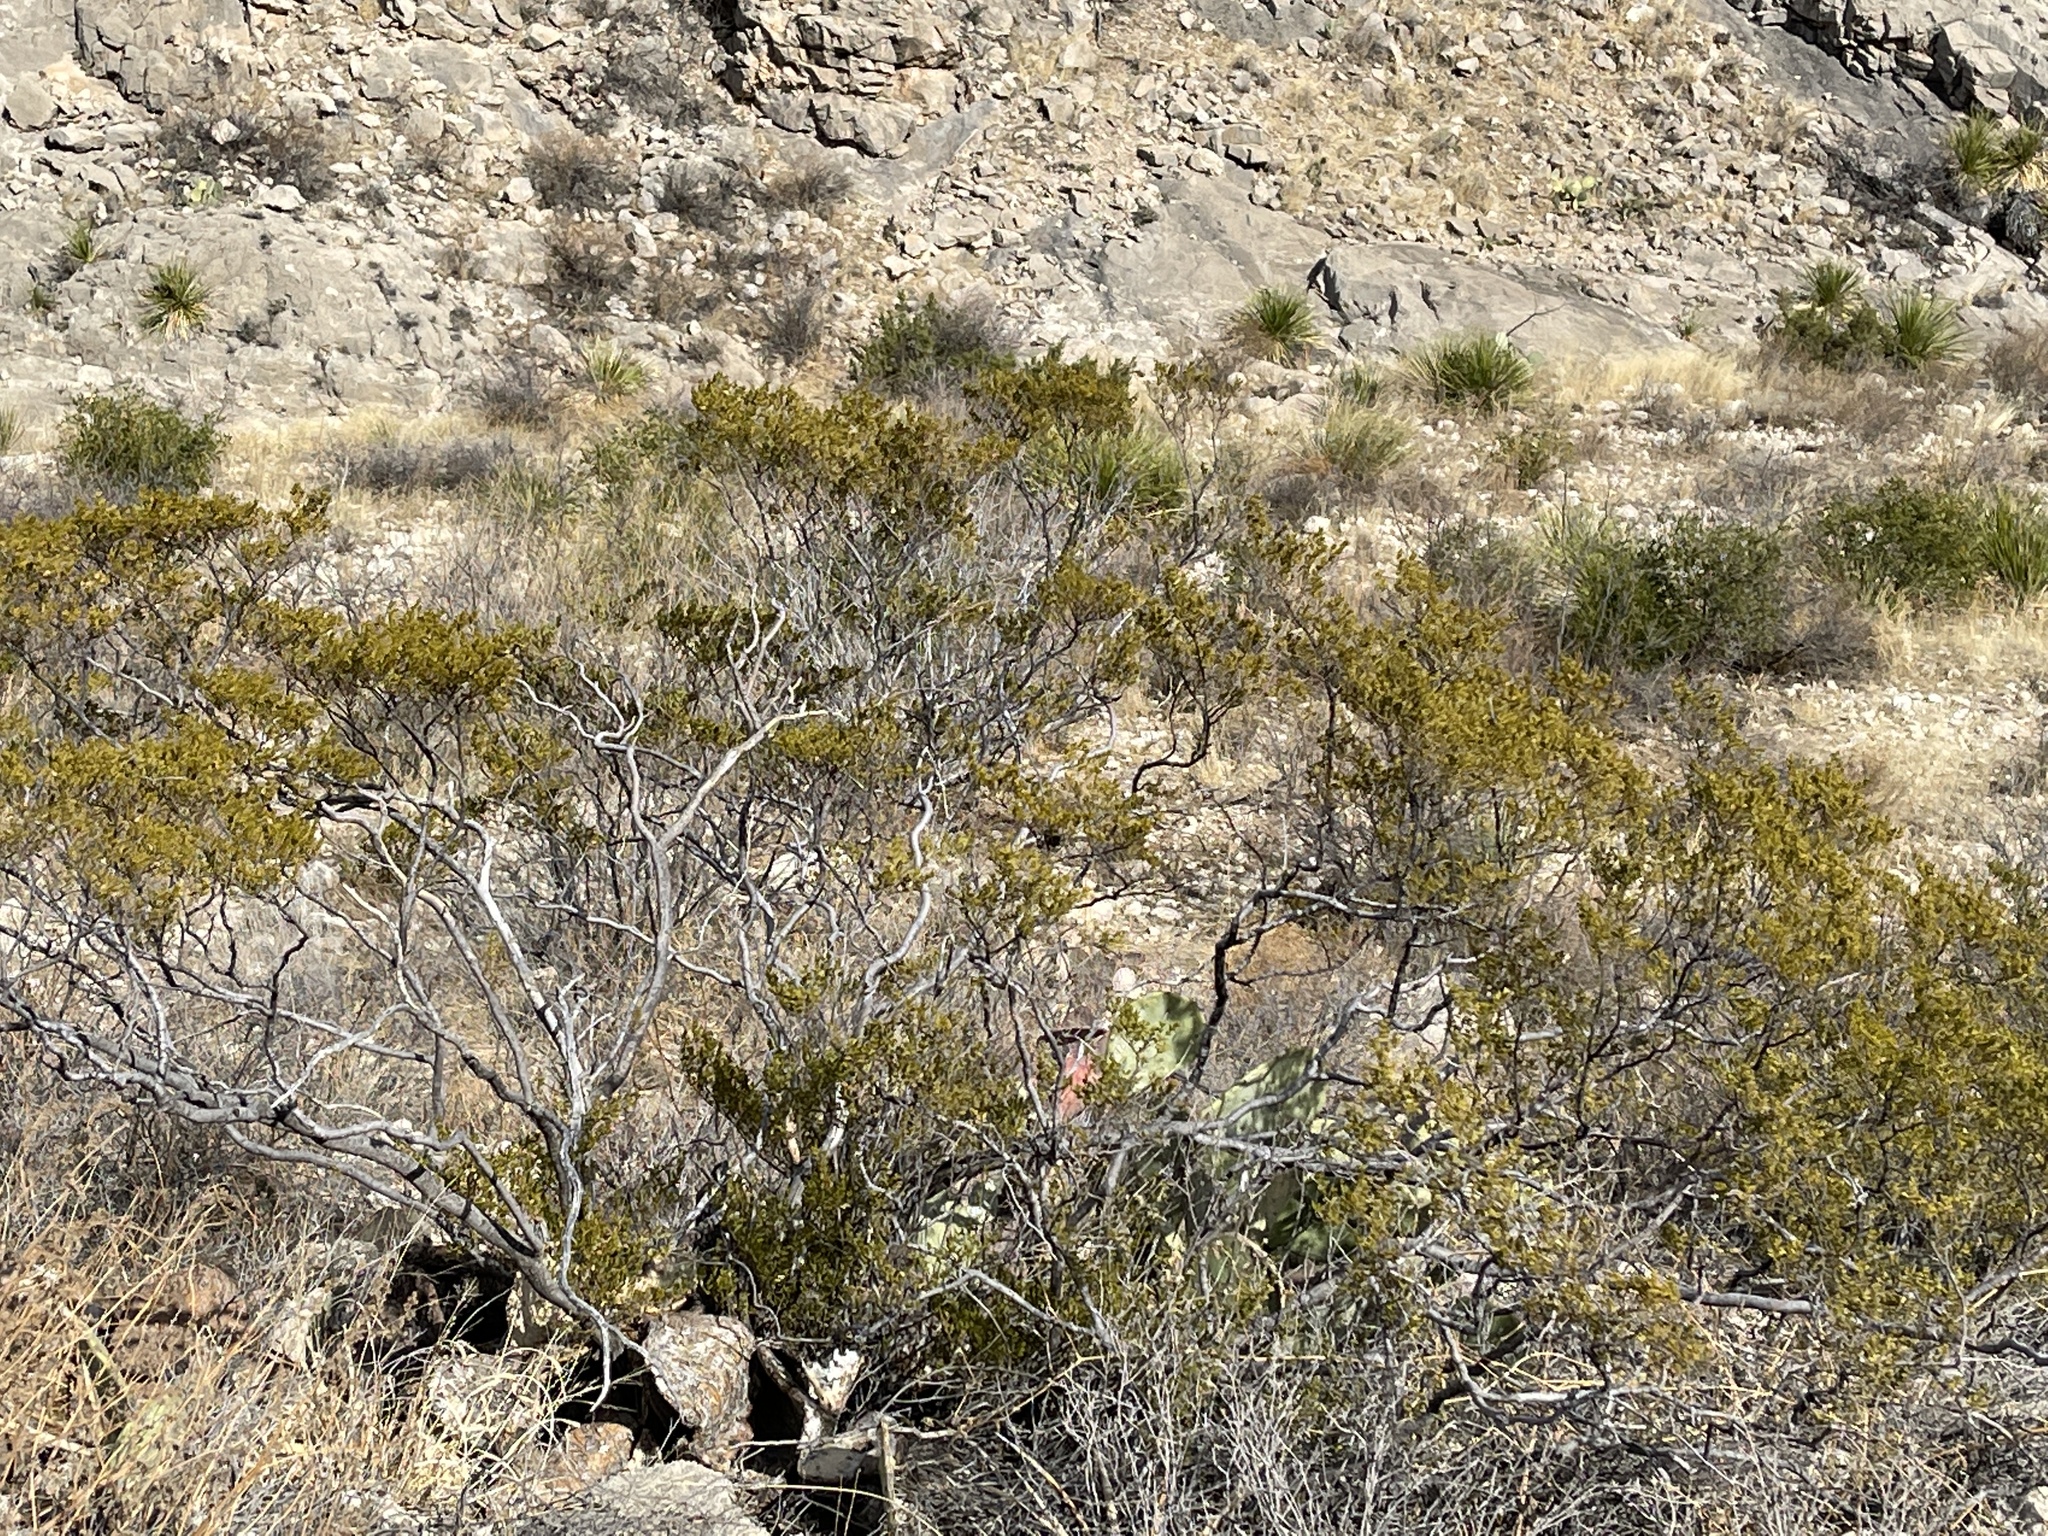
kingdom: Plantae
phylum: Tracheophyta
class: Magnoliopsida
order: Zygophyllales
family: Zygophyllaceae
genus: Larrea
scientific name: Larrea tridentata
